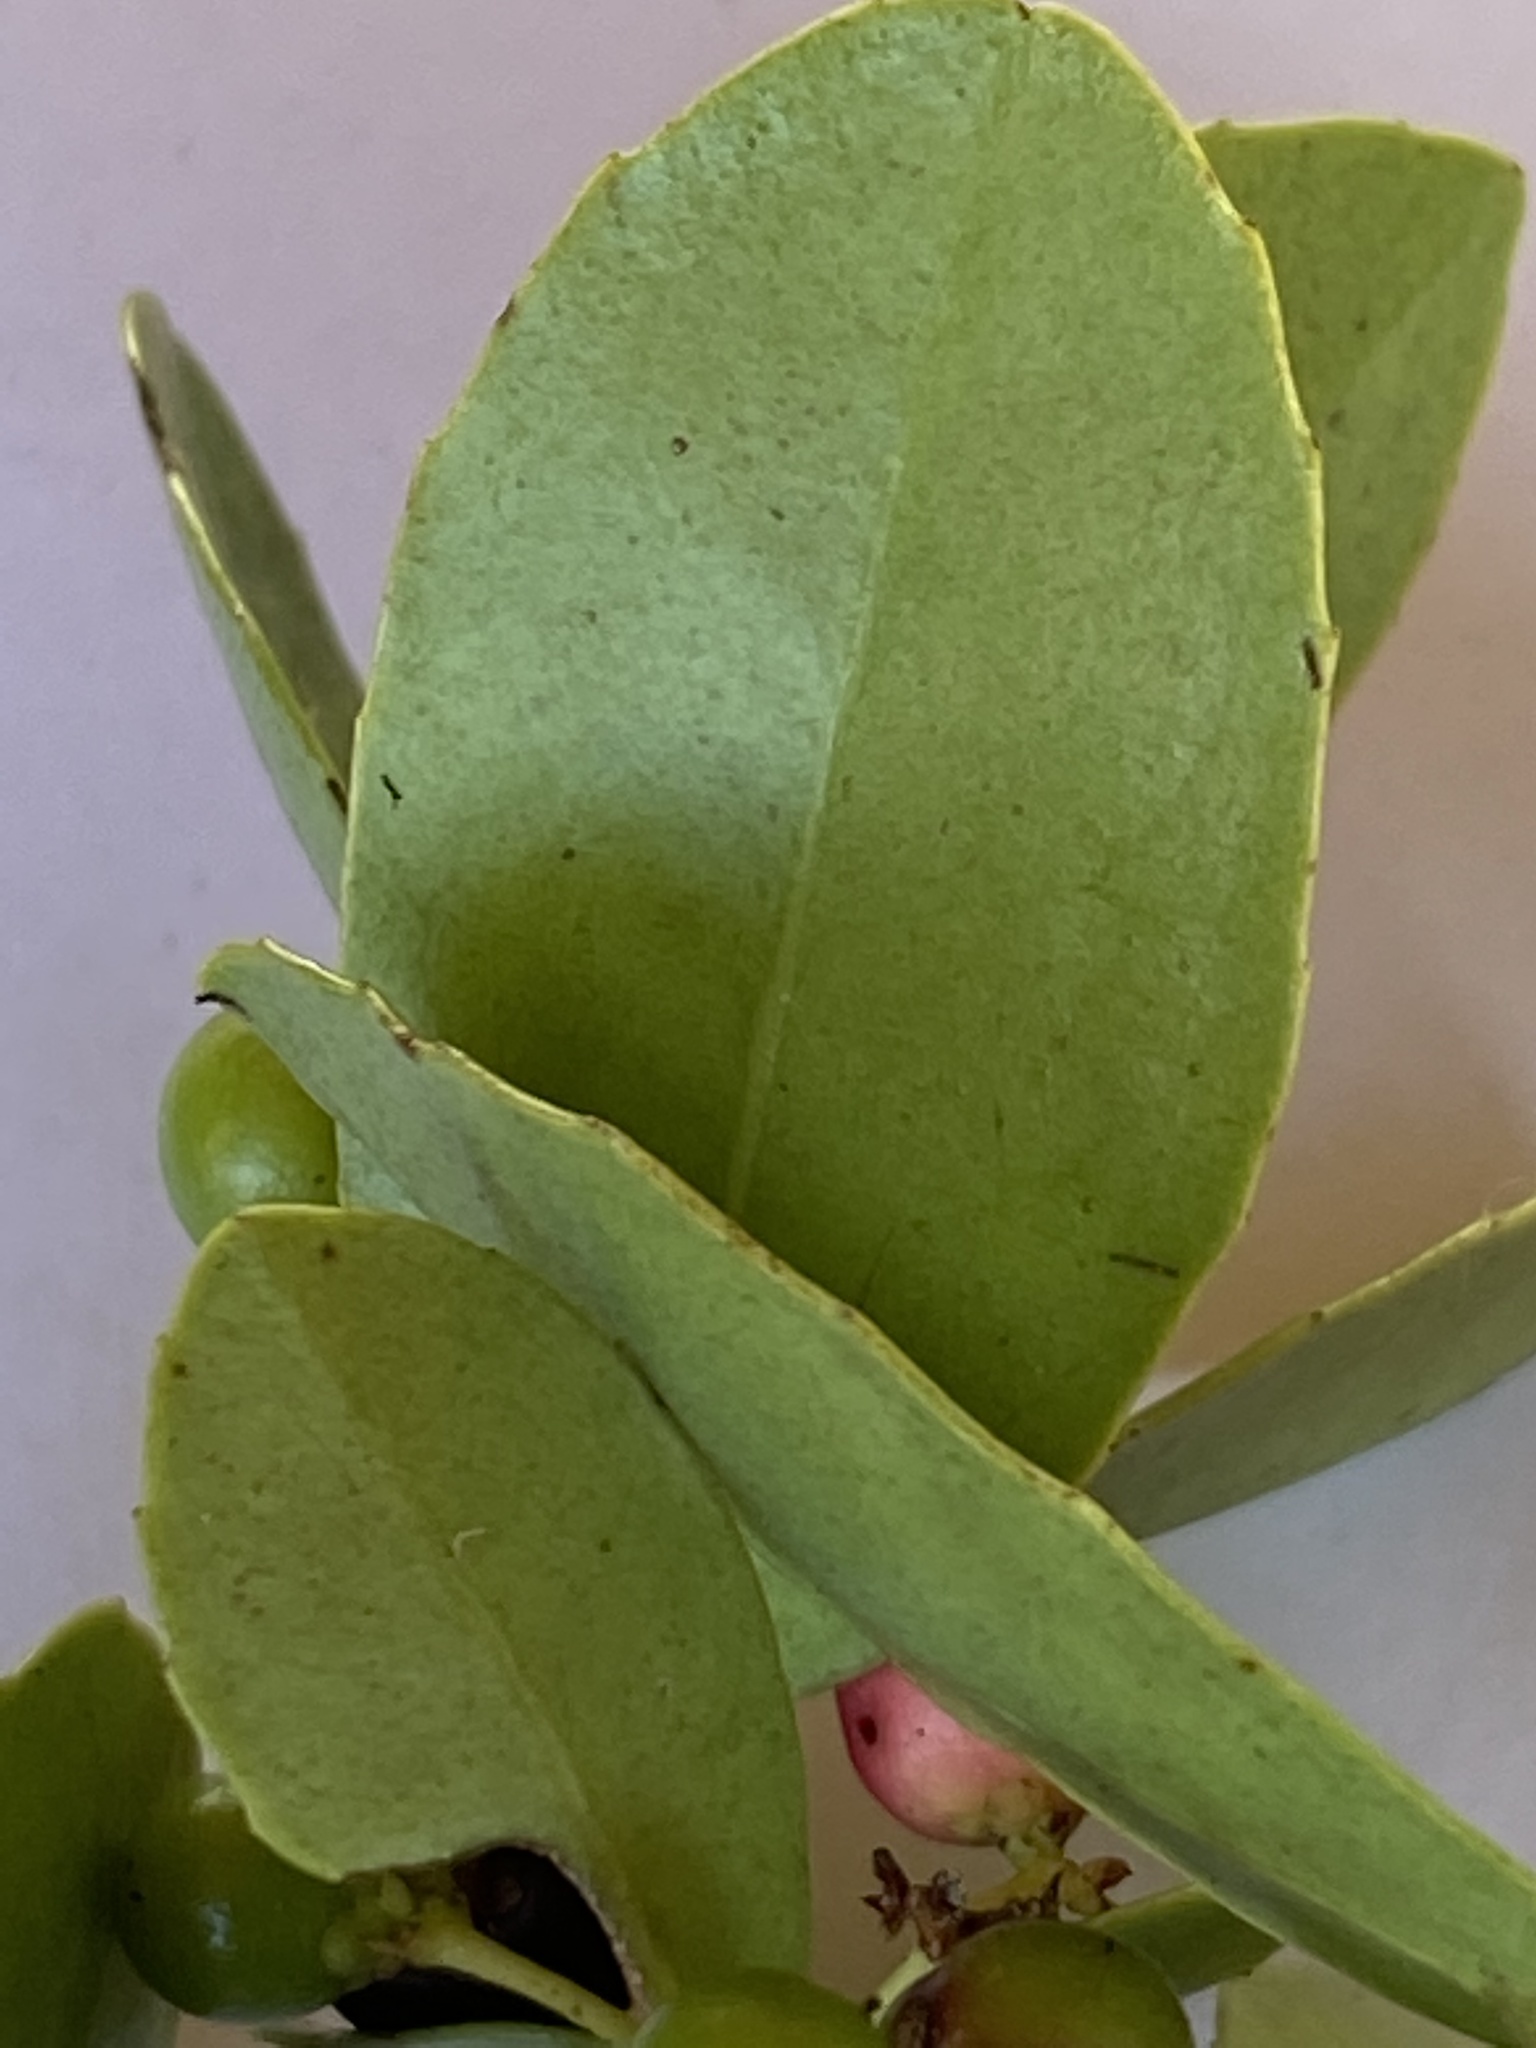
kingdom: Plantae
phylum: Tracheophyta
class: Magnoliopsida
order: Celastrales
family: Celastraceae
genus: Lauridia
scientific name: Lauridia tetragona
